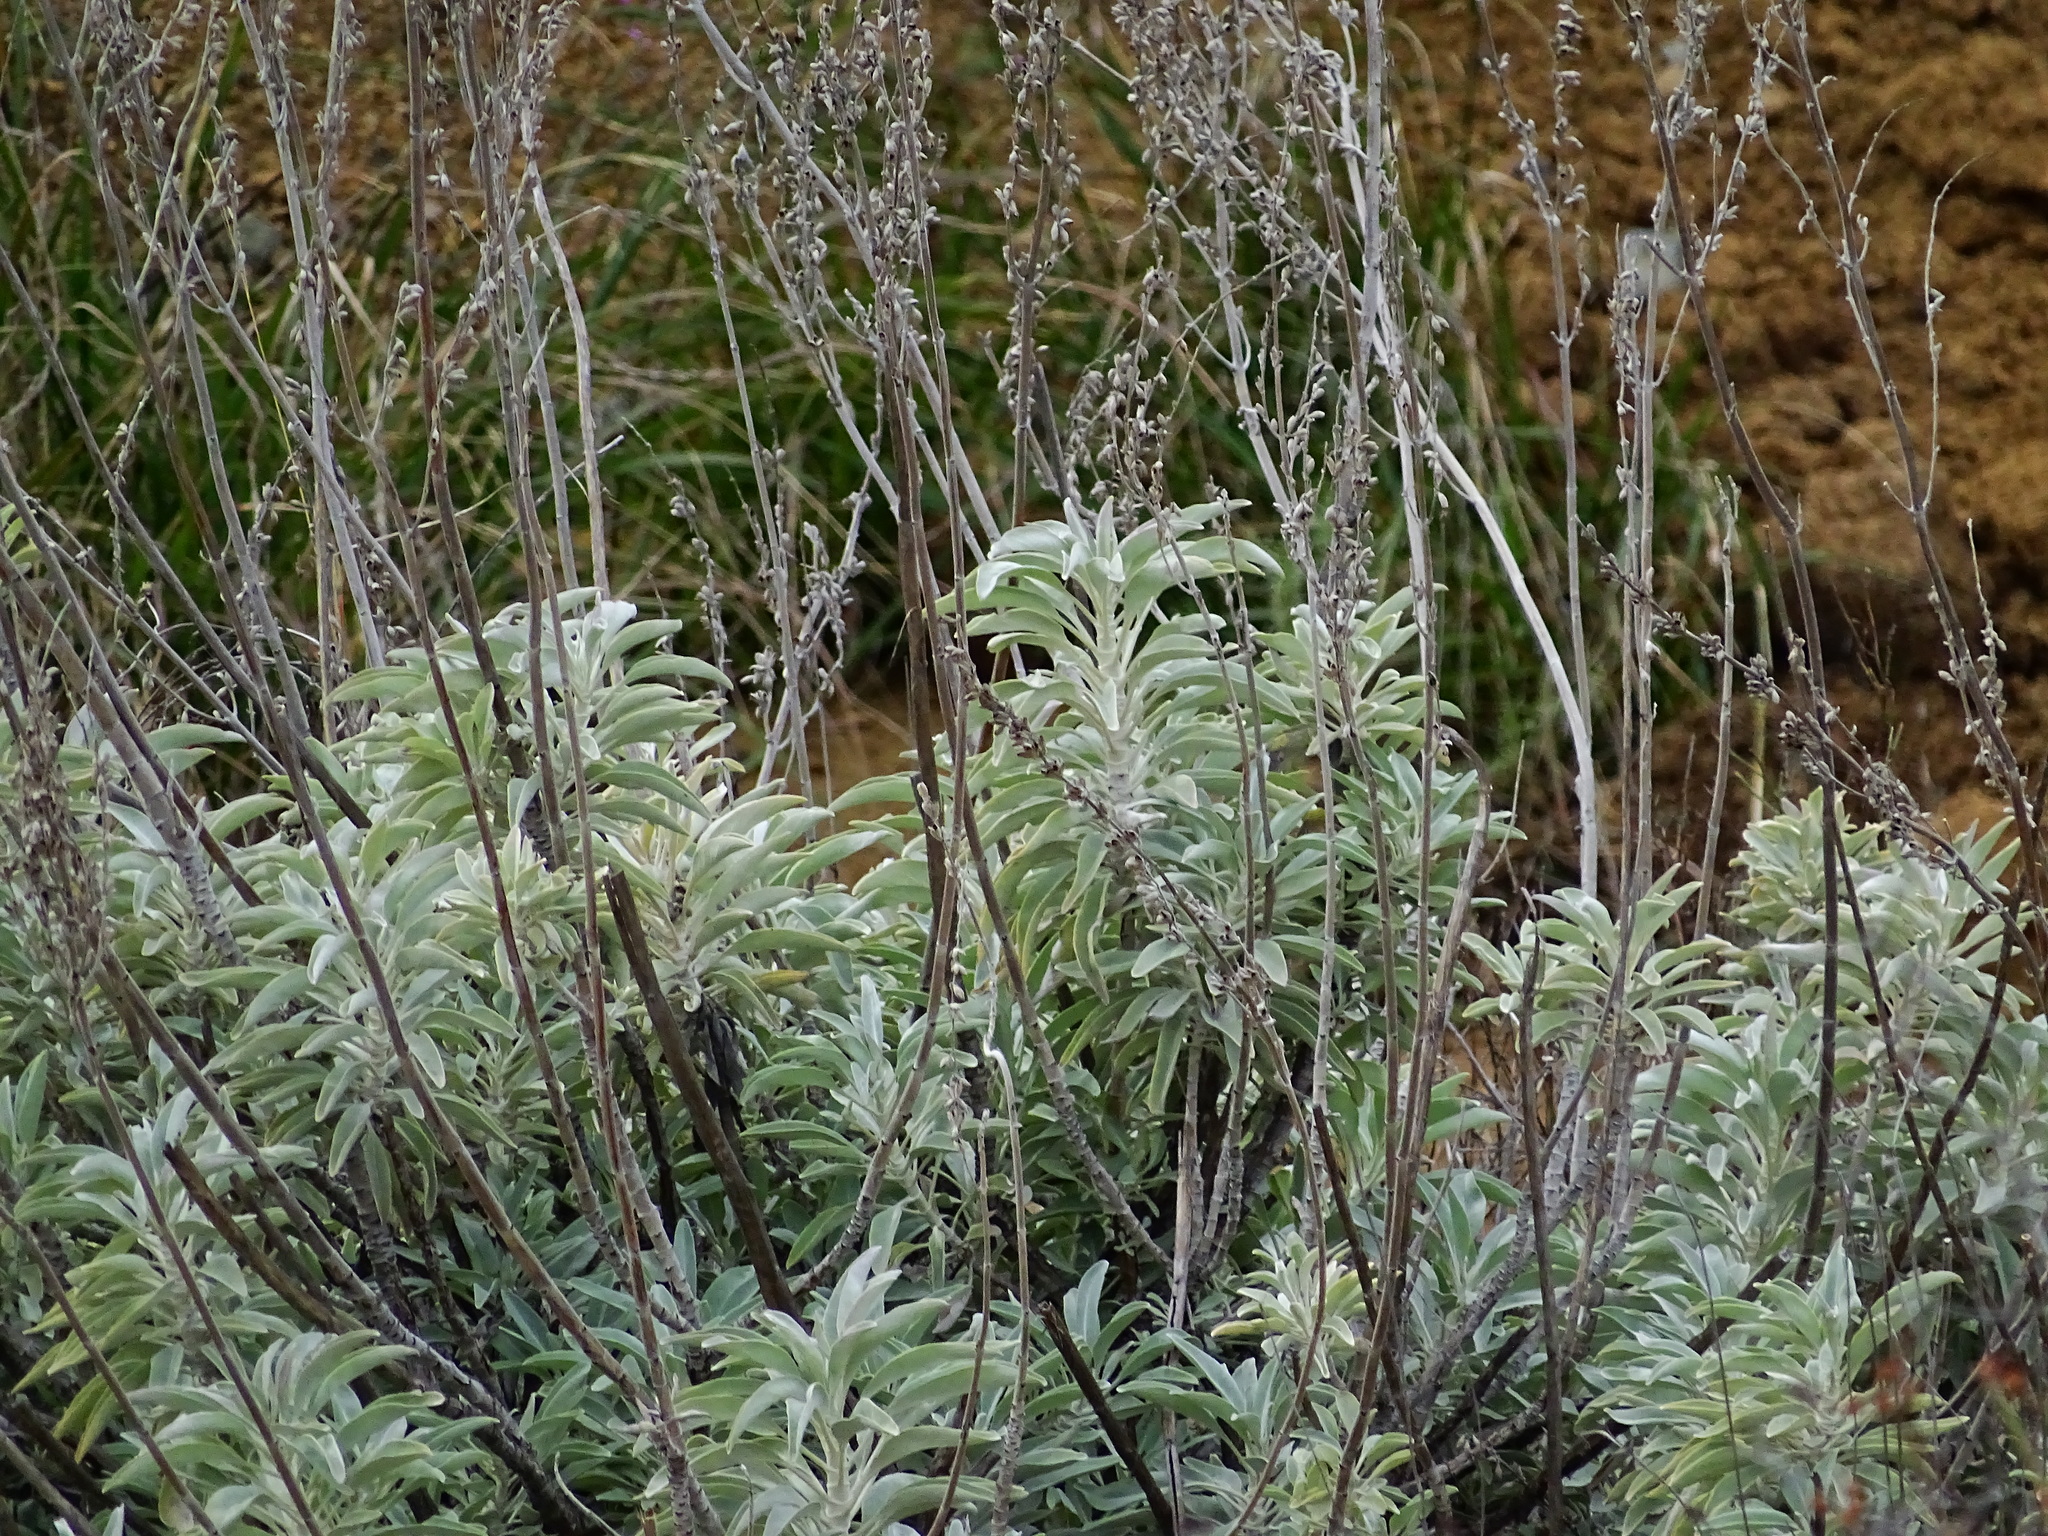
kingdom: Plantae
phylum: Tracheophyta
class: Magnoliopsida
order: Lamiales
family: Lamiaceae
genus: Salvia
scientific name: Salvia apiana
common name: White sage
